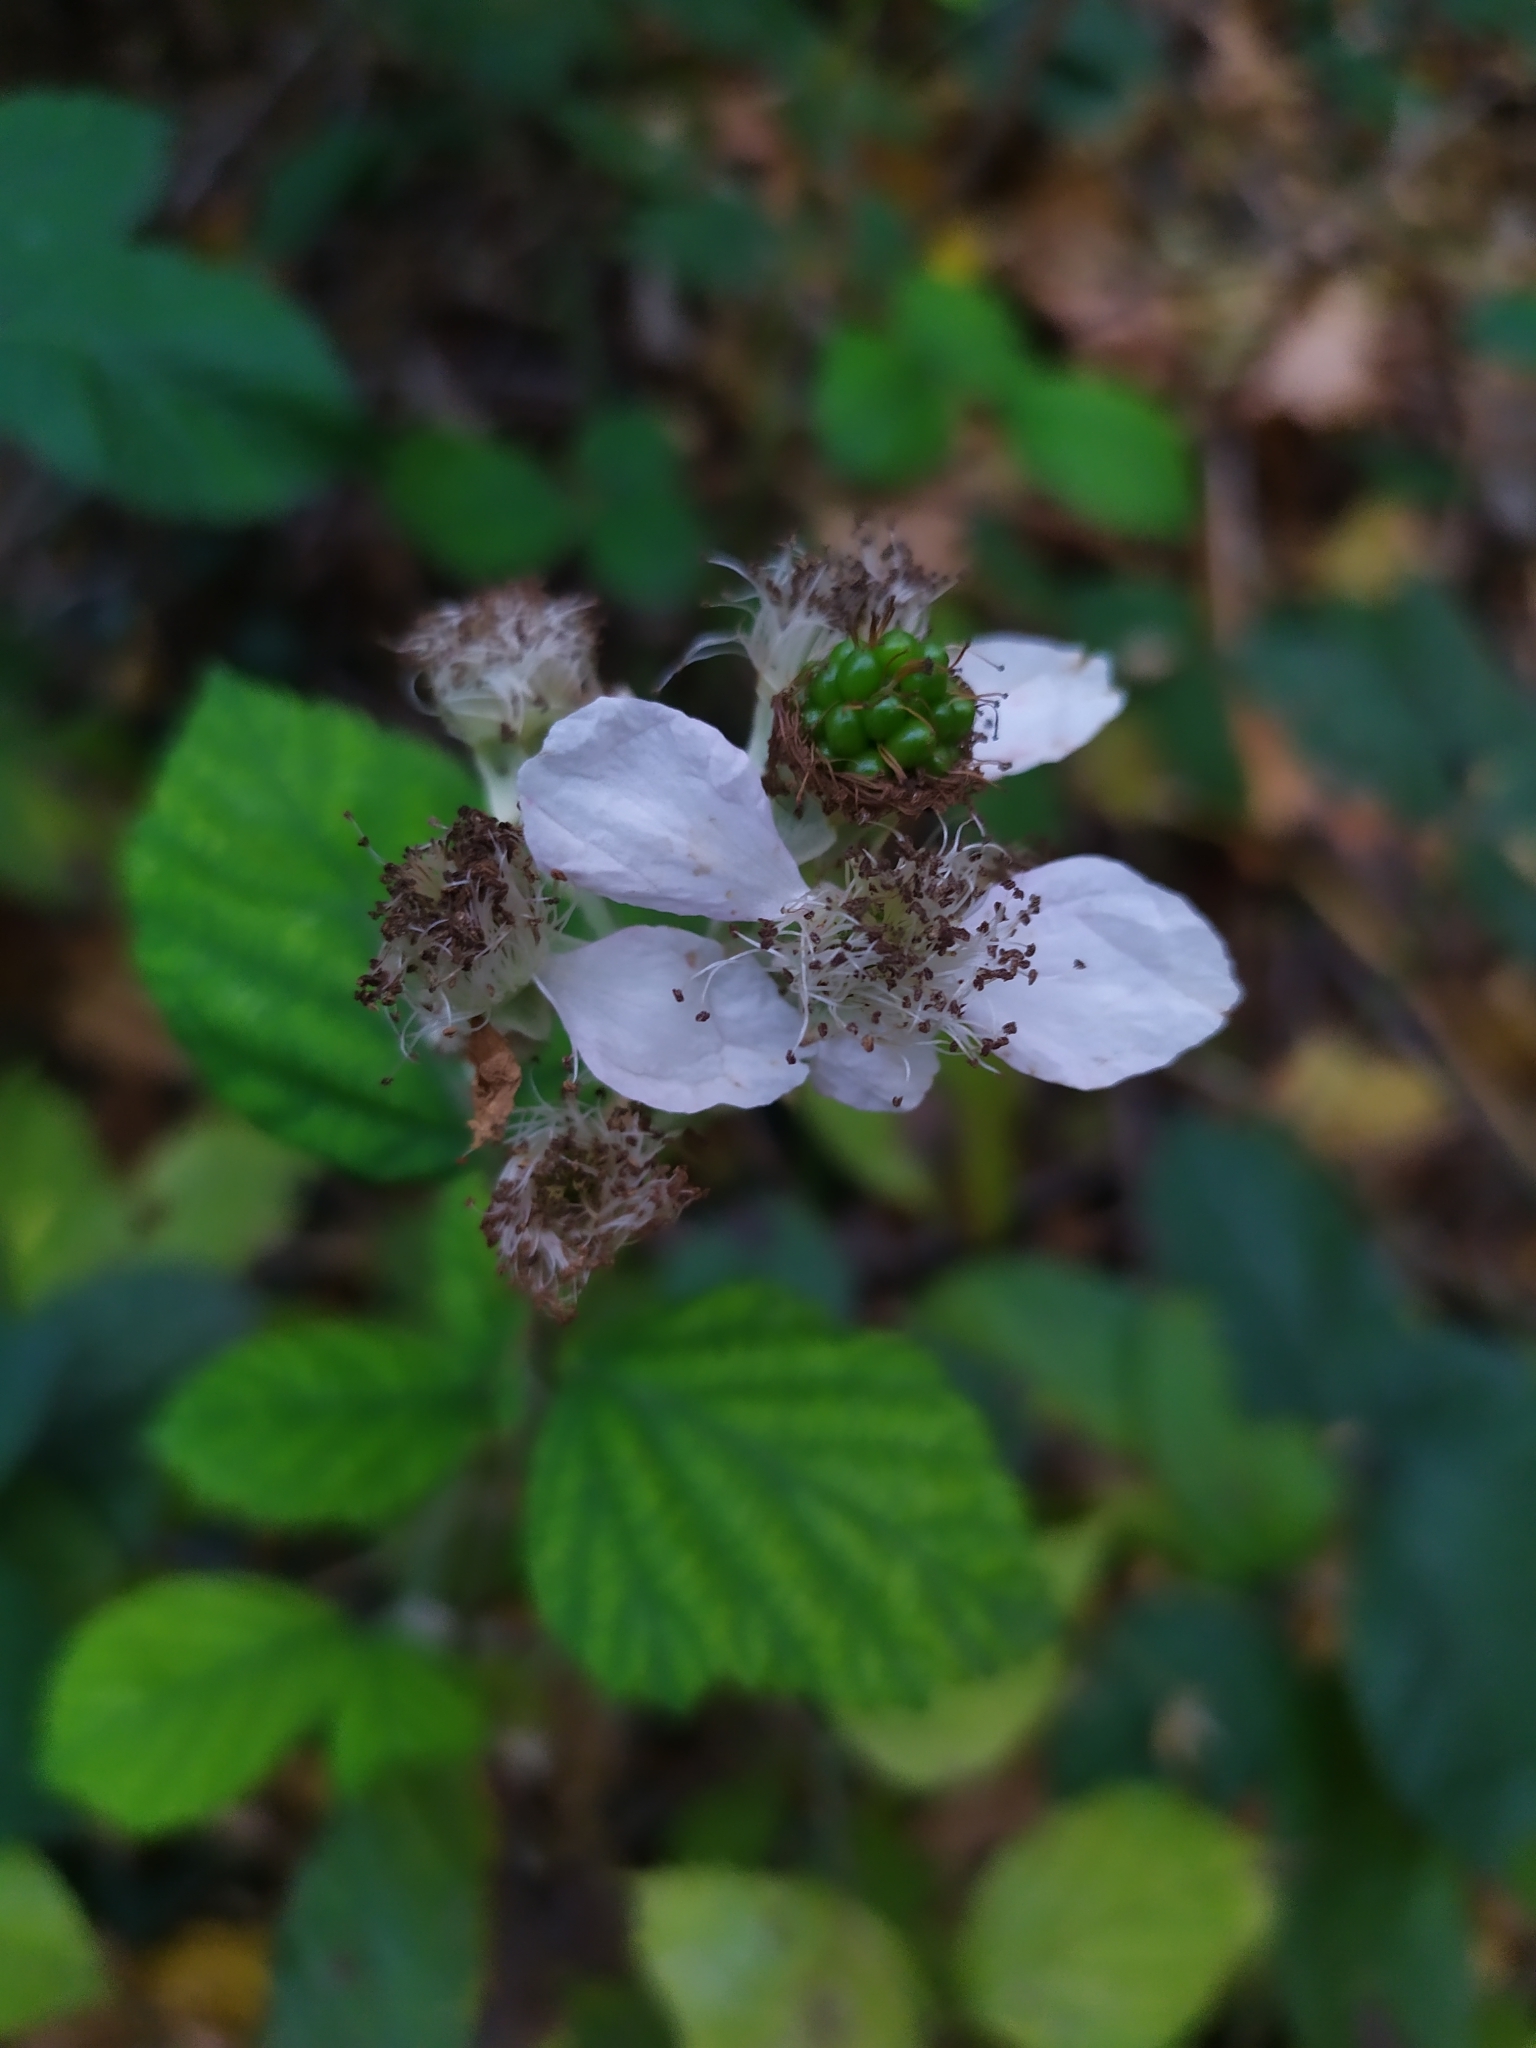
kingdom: Plantae
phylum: Tracheophyta
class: Magnoliopsida
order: Rosales
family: Rosaceae
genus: Rubus
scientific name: Rubus
